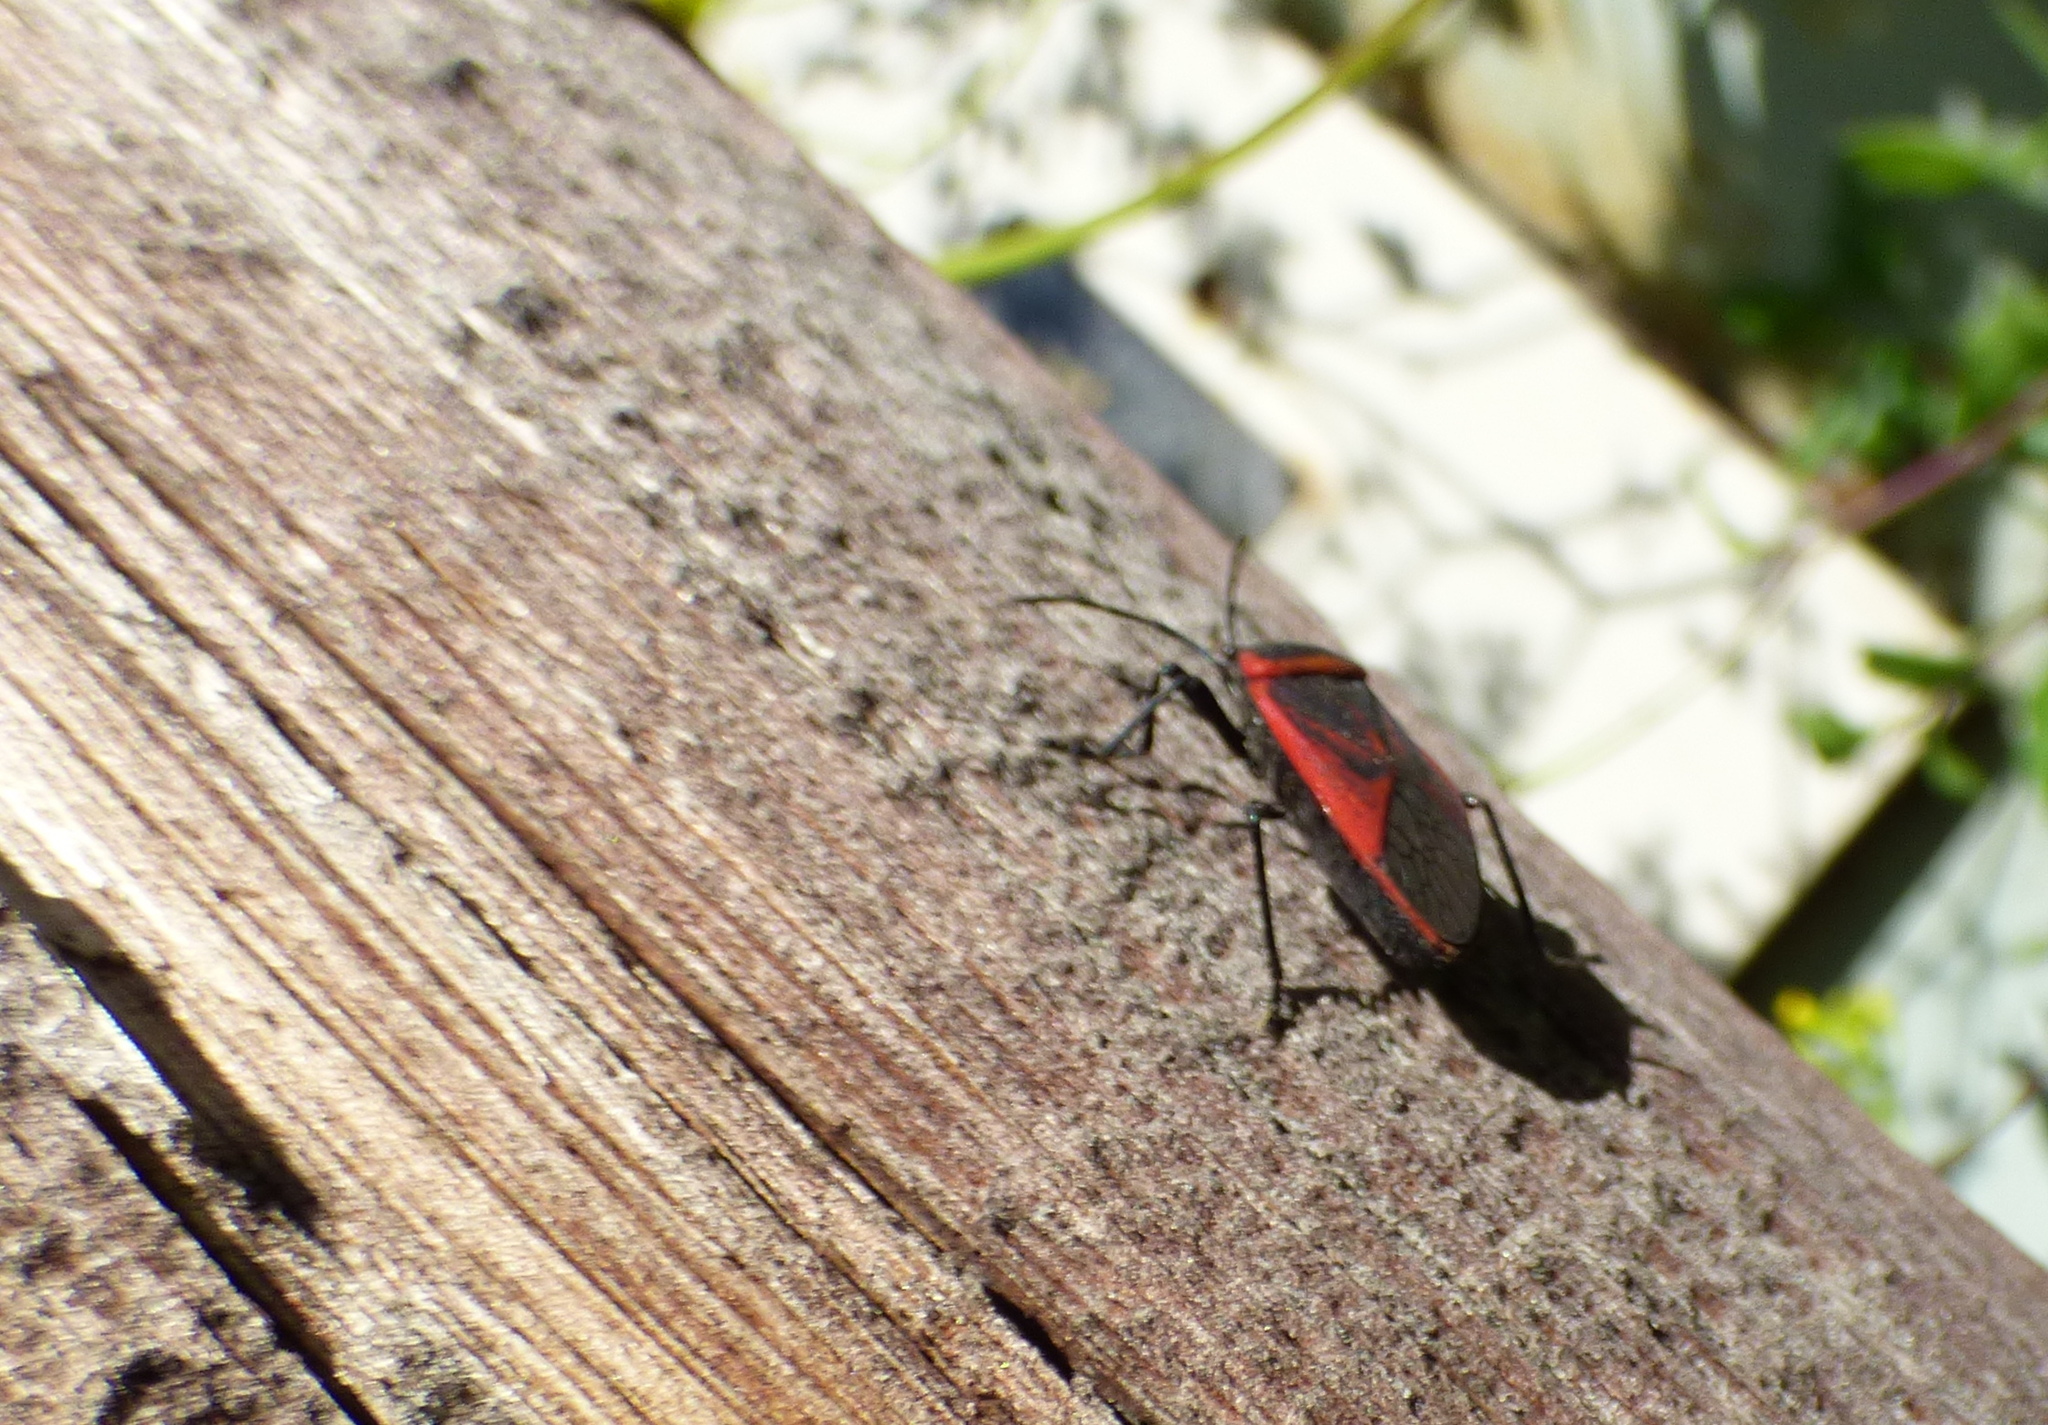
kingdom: Animalia
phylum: Arthropoda
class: Insecta
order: Hemiptera
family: Largidae
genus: Largus
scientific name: Largus rufipennis
